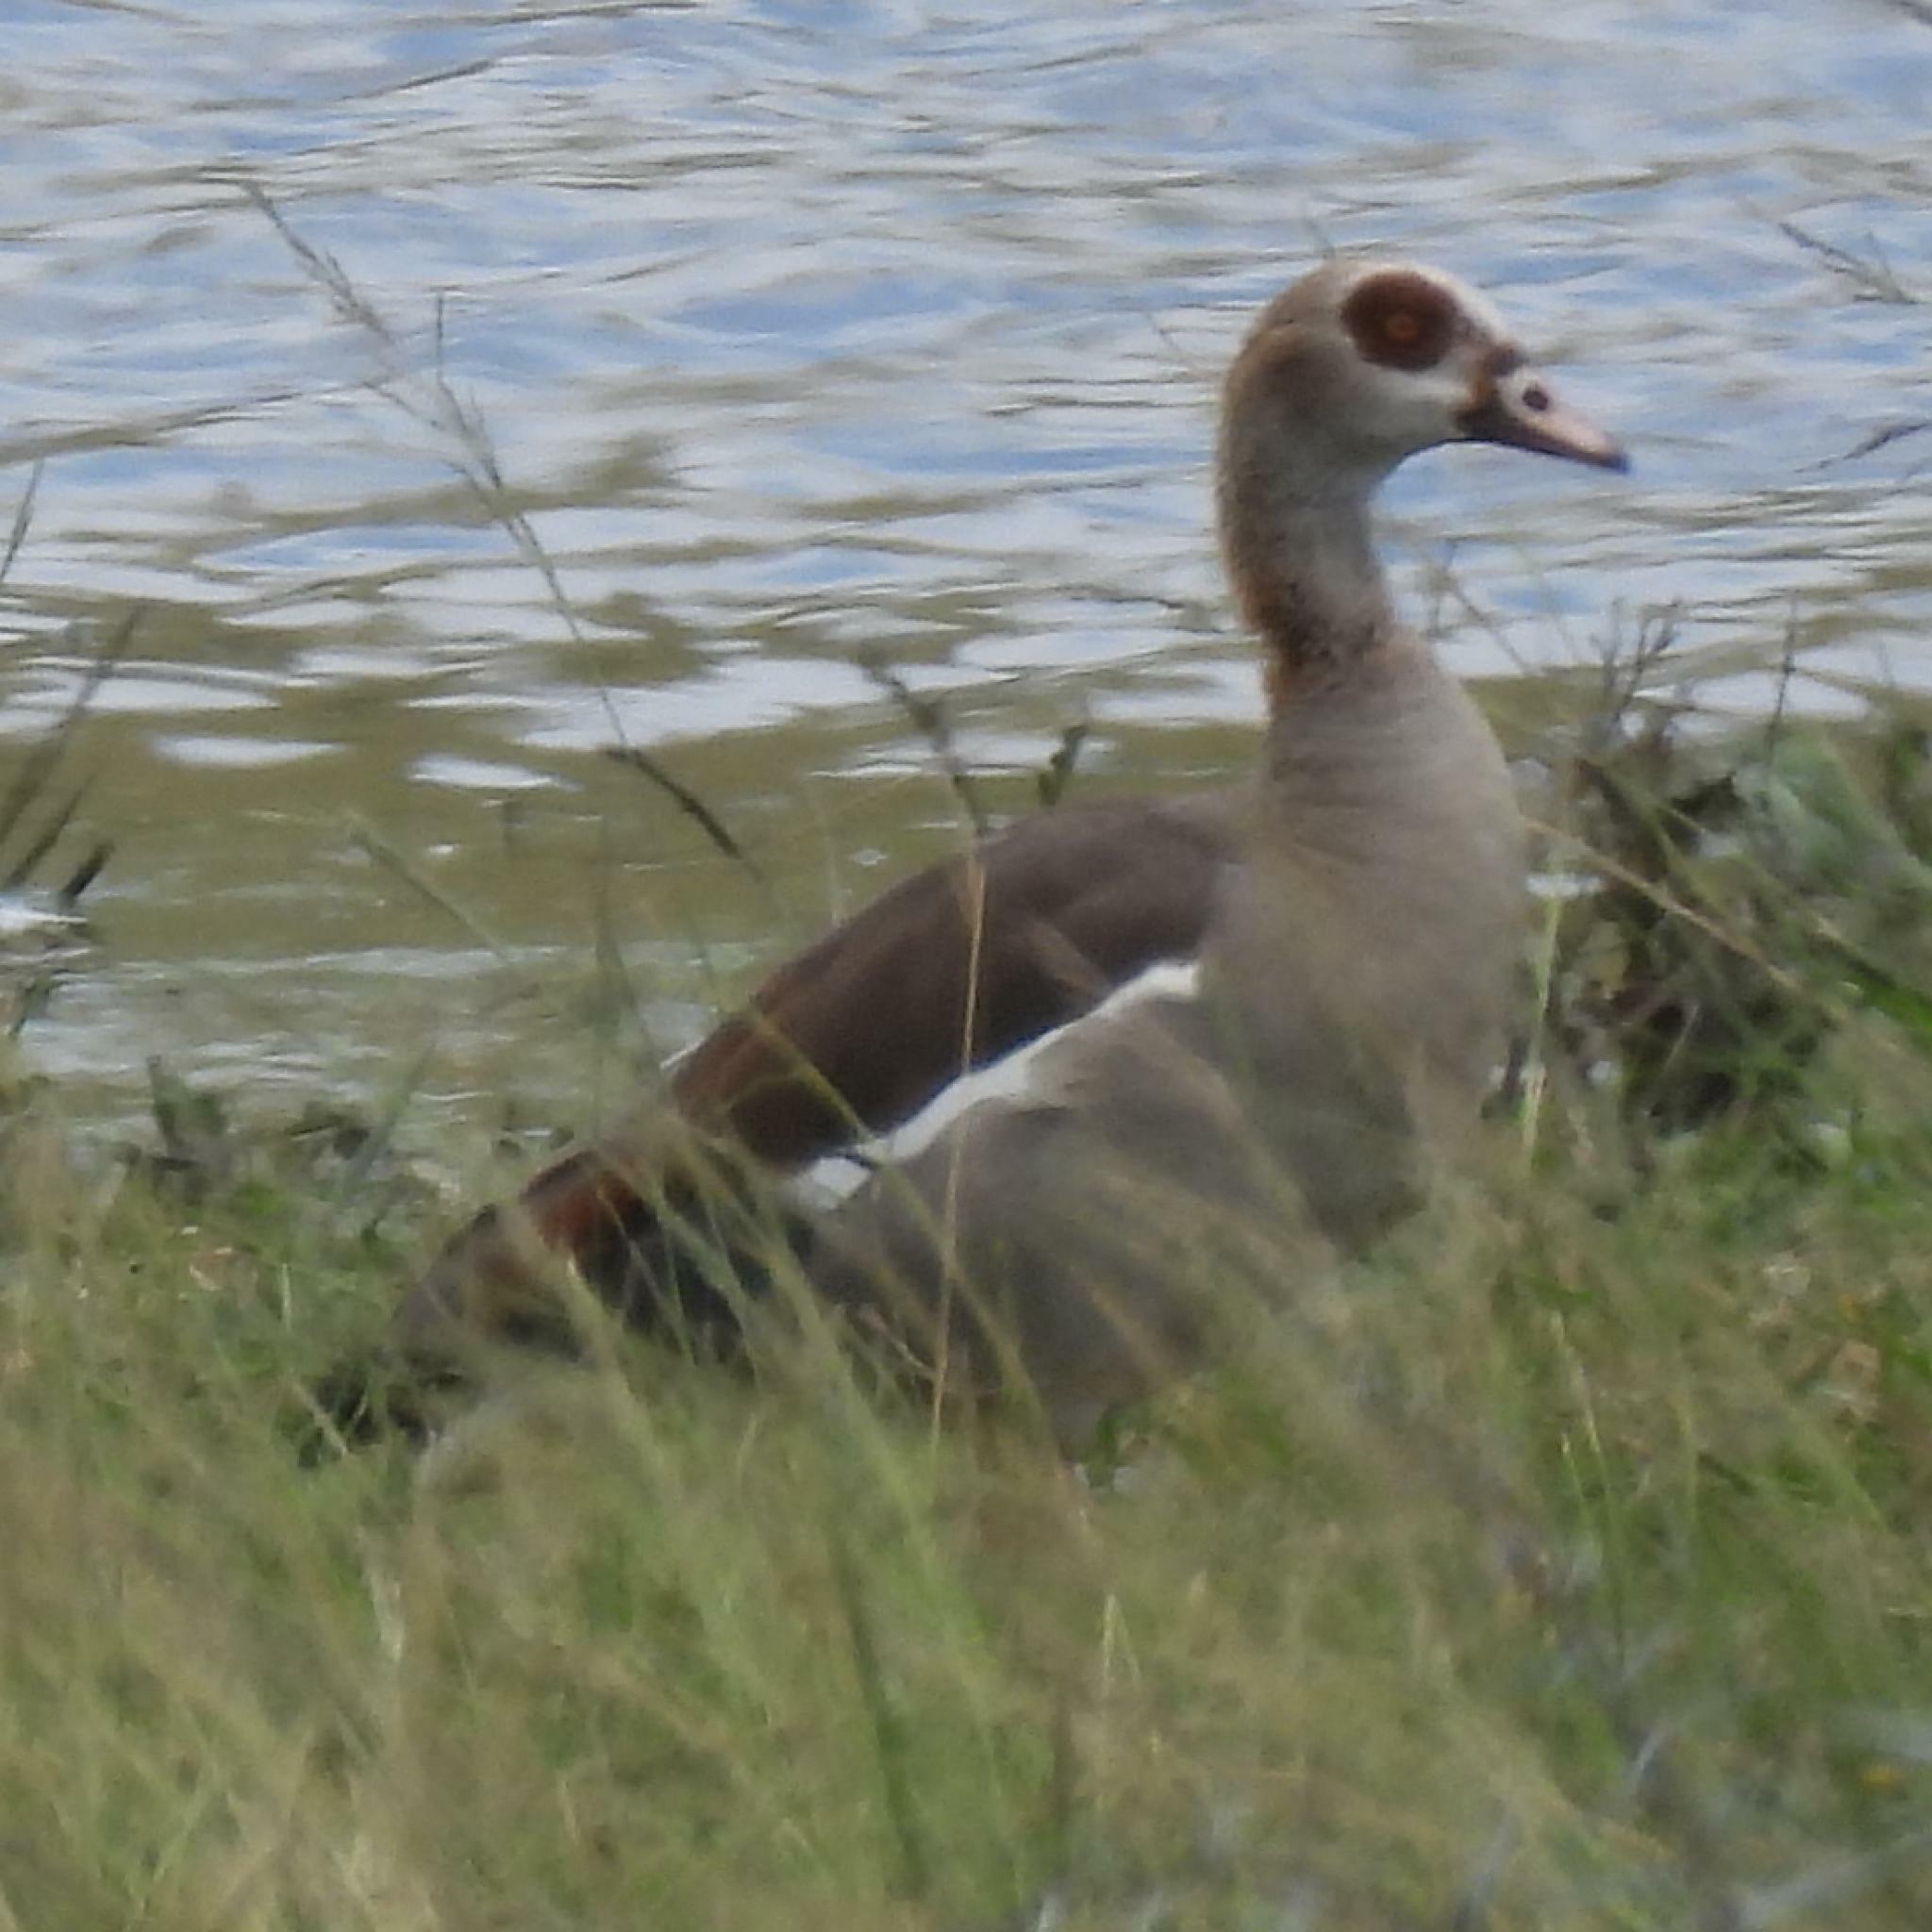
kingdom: Animalia
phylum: Chordata
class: Aves
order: Anseriformes
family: Anatidae
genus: Alopochen
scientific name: Alopochen aegyptiaca
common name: Egyptian goose
